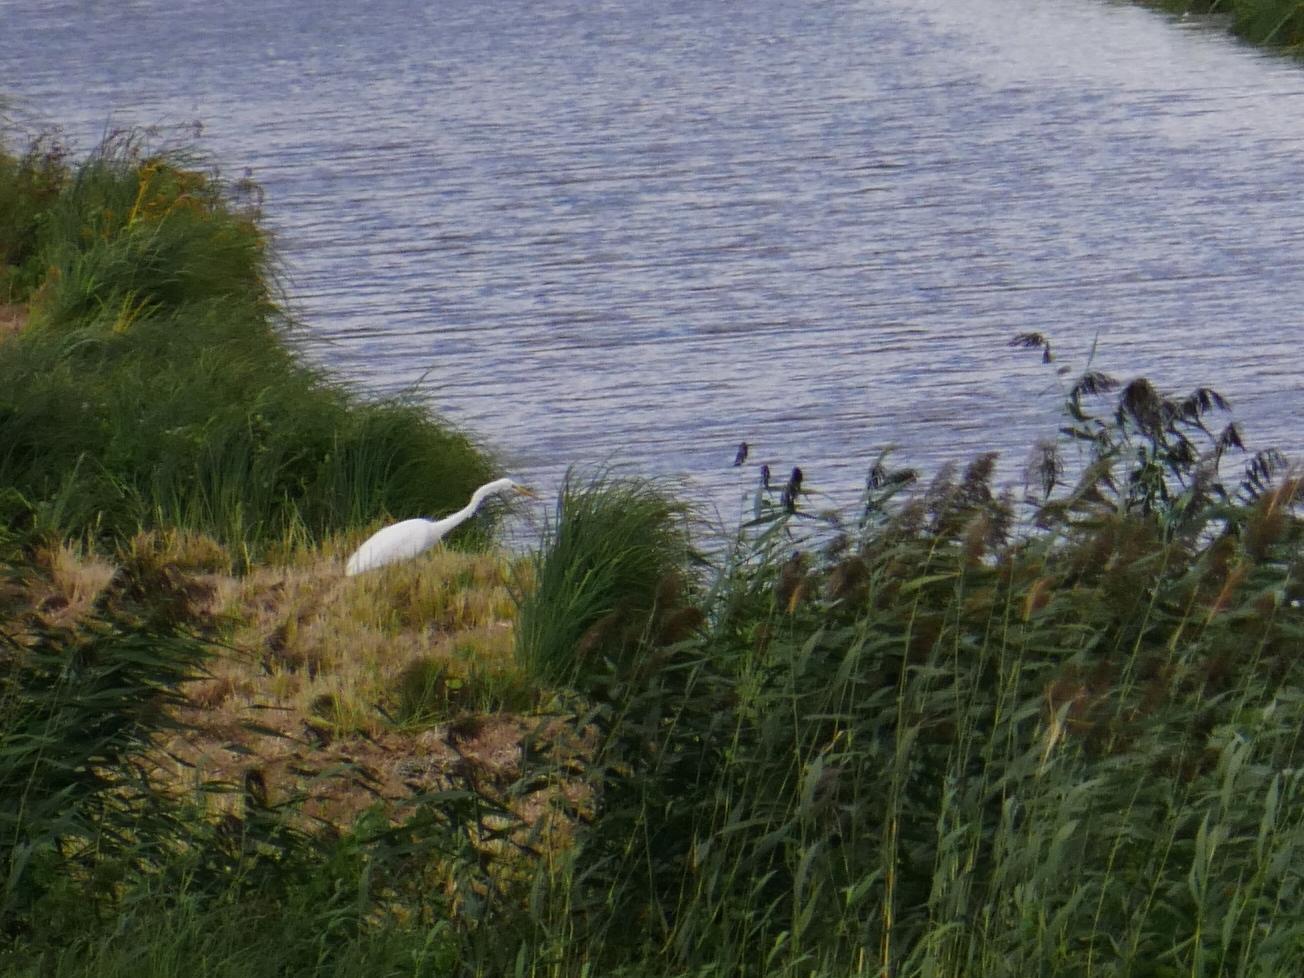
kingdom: Animalia
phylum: Chordata
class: Aves
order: Pelecaniformes
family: Ardeidae
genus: Ardea
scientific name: Ardea alba
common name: Great egret
